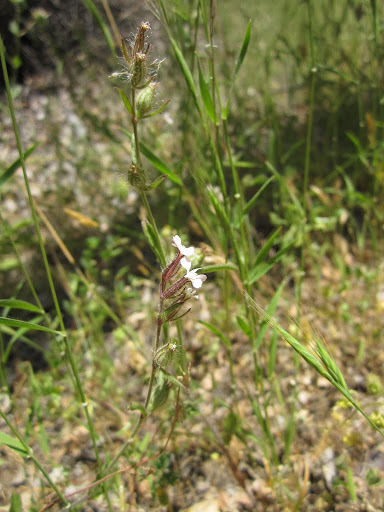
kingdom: Plantae
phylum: Tracheophyta
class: Magnoliopsida
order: Caryophyllales
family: Caryophyllaceae
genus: Silene
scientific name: Silene gallica
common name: Small-flowered catchfly
